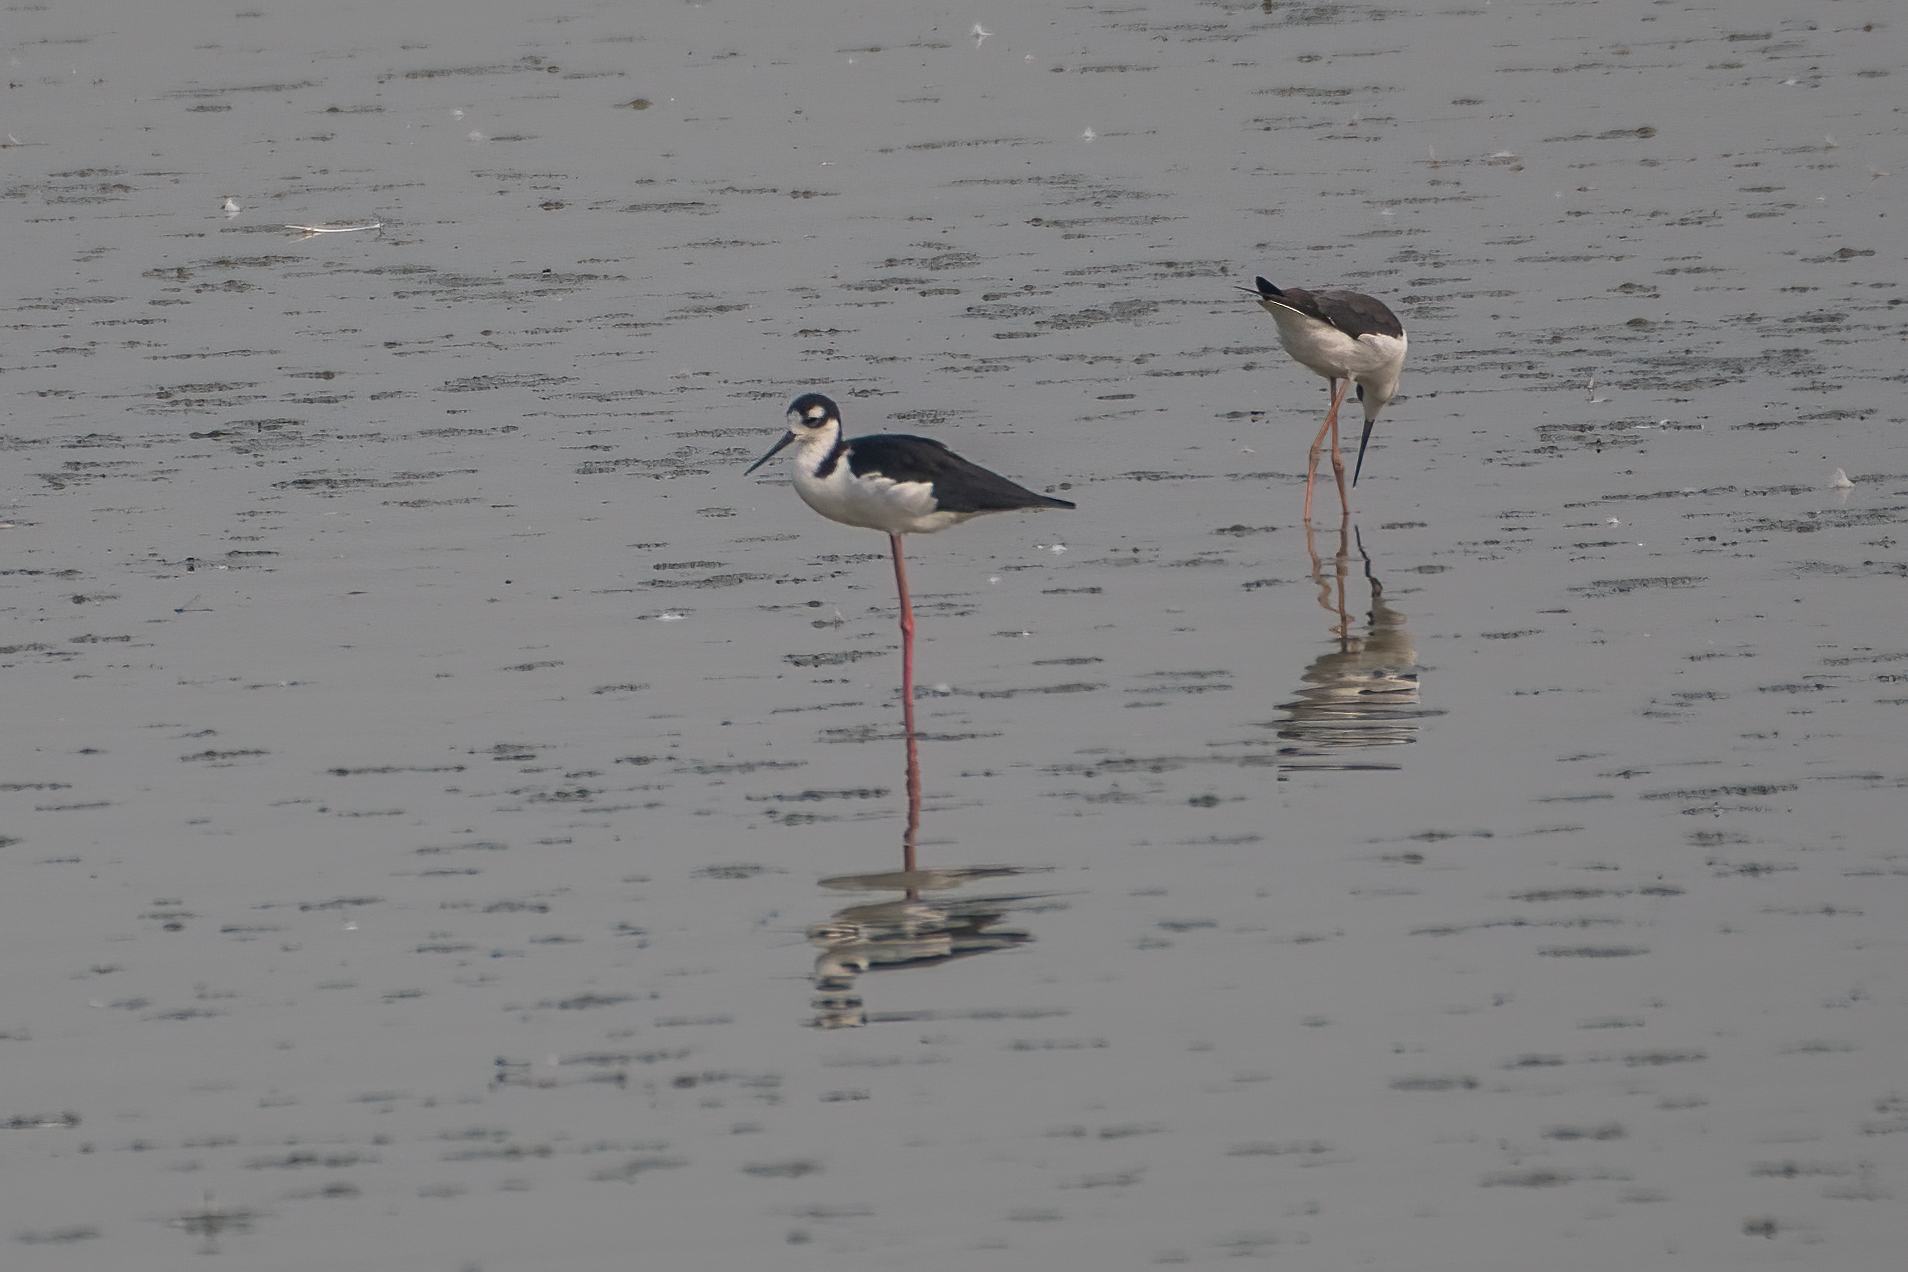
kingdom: Animalia
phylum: Chordata
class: Aves
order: Charadriiformes
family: Recurvirostridae
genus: Himantopus
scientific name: Himantopus mexicanus
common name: Black-necked stilt
